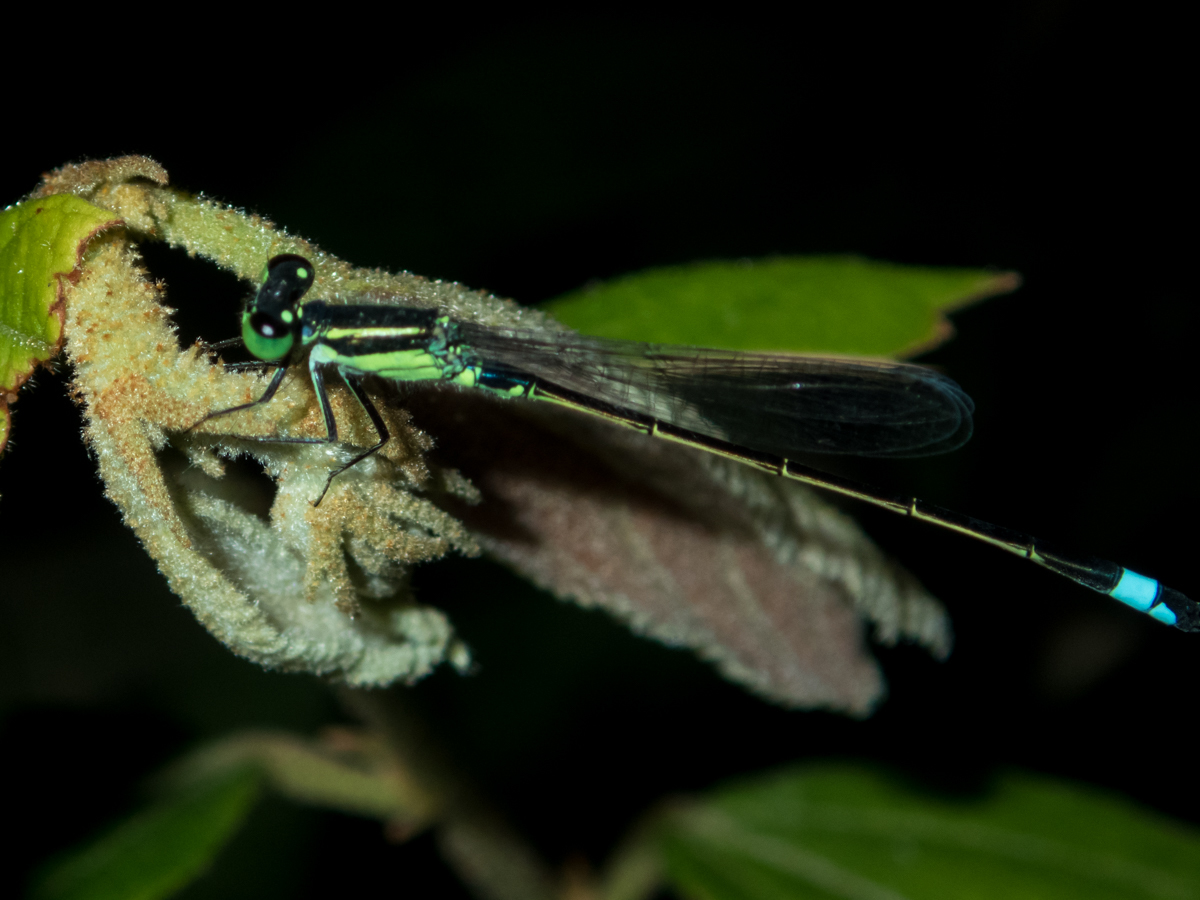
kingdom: Animalia
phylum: Arthropoda
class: Insecta
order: Odonata
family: Coenagrionidae
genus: Ischnura
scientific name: Ischnura senegalensis
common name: Tropical bluetail
